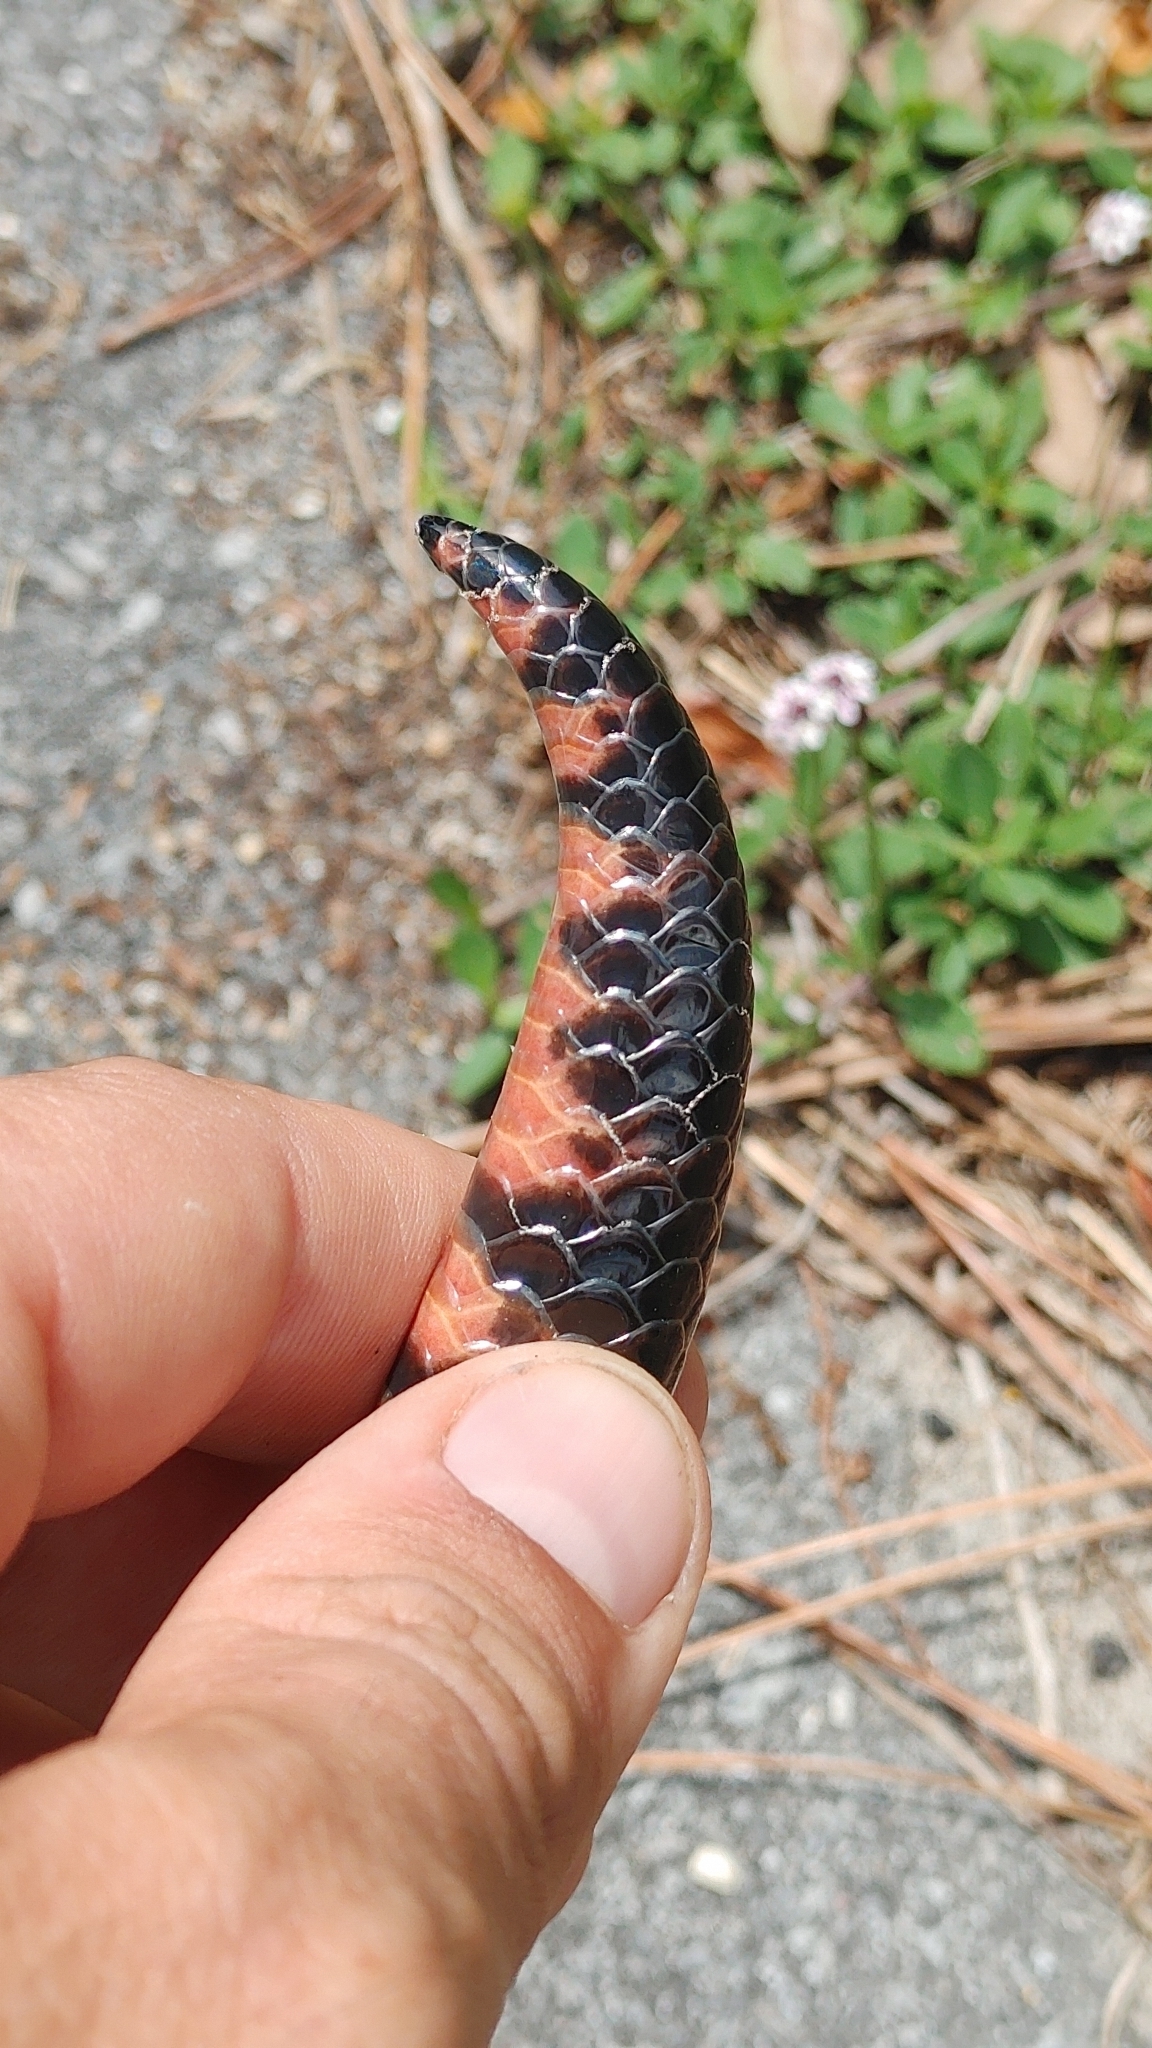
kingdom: Animalia
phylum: Chordata
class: Squamata
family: Colubridae
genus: Farancia
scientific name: Farancia abacura
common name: Mud snake
